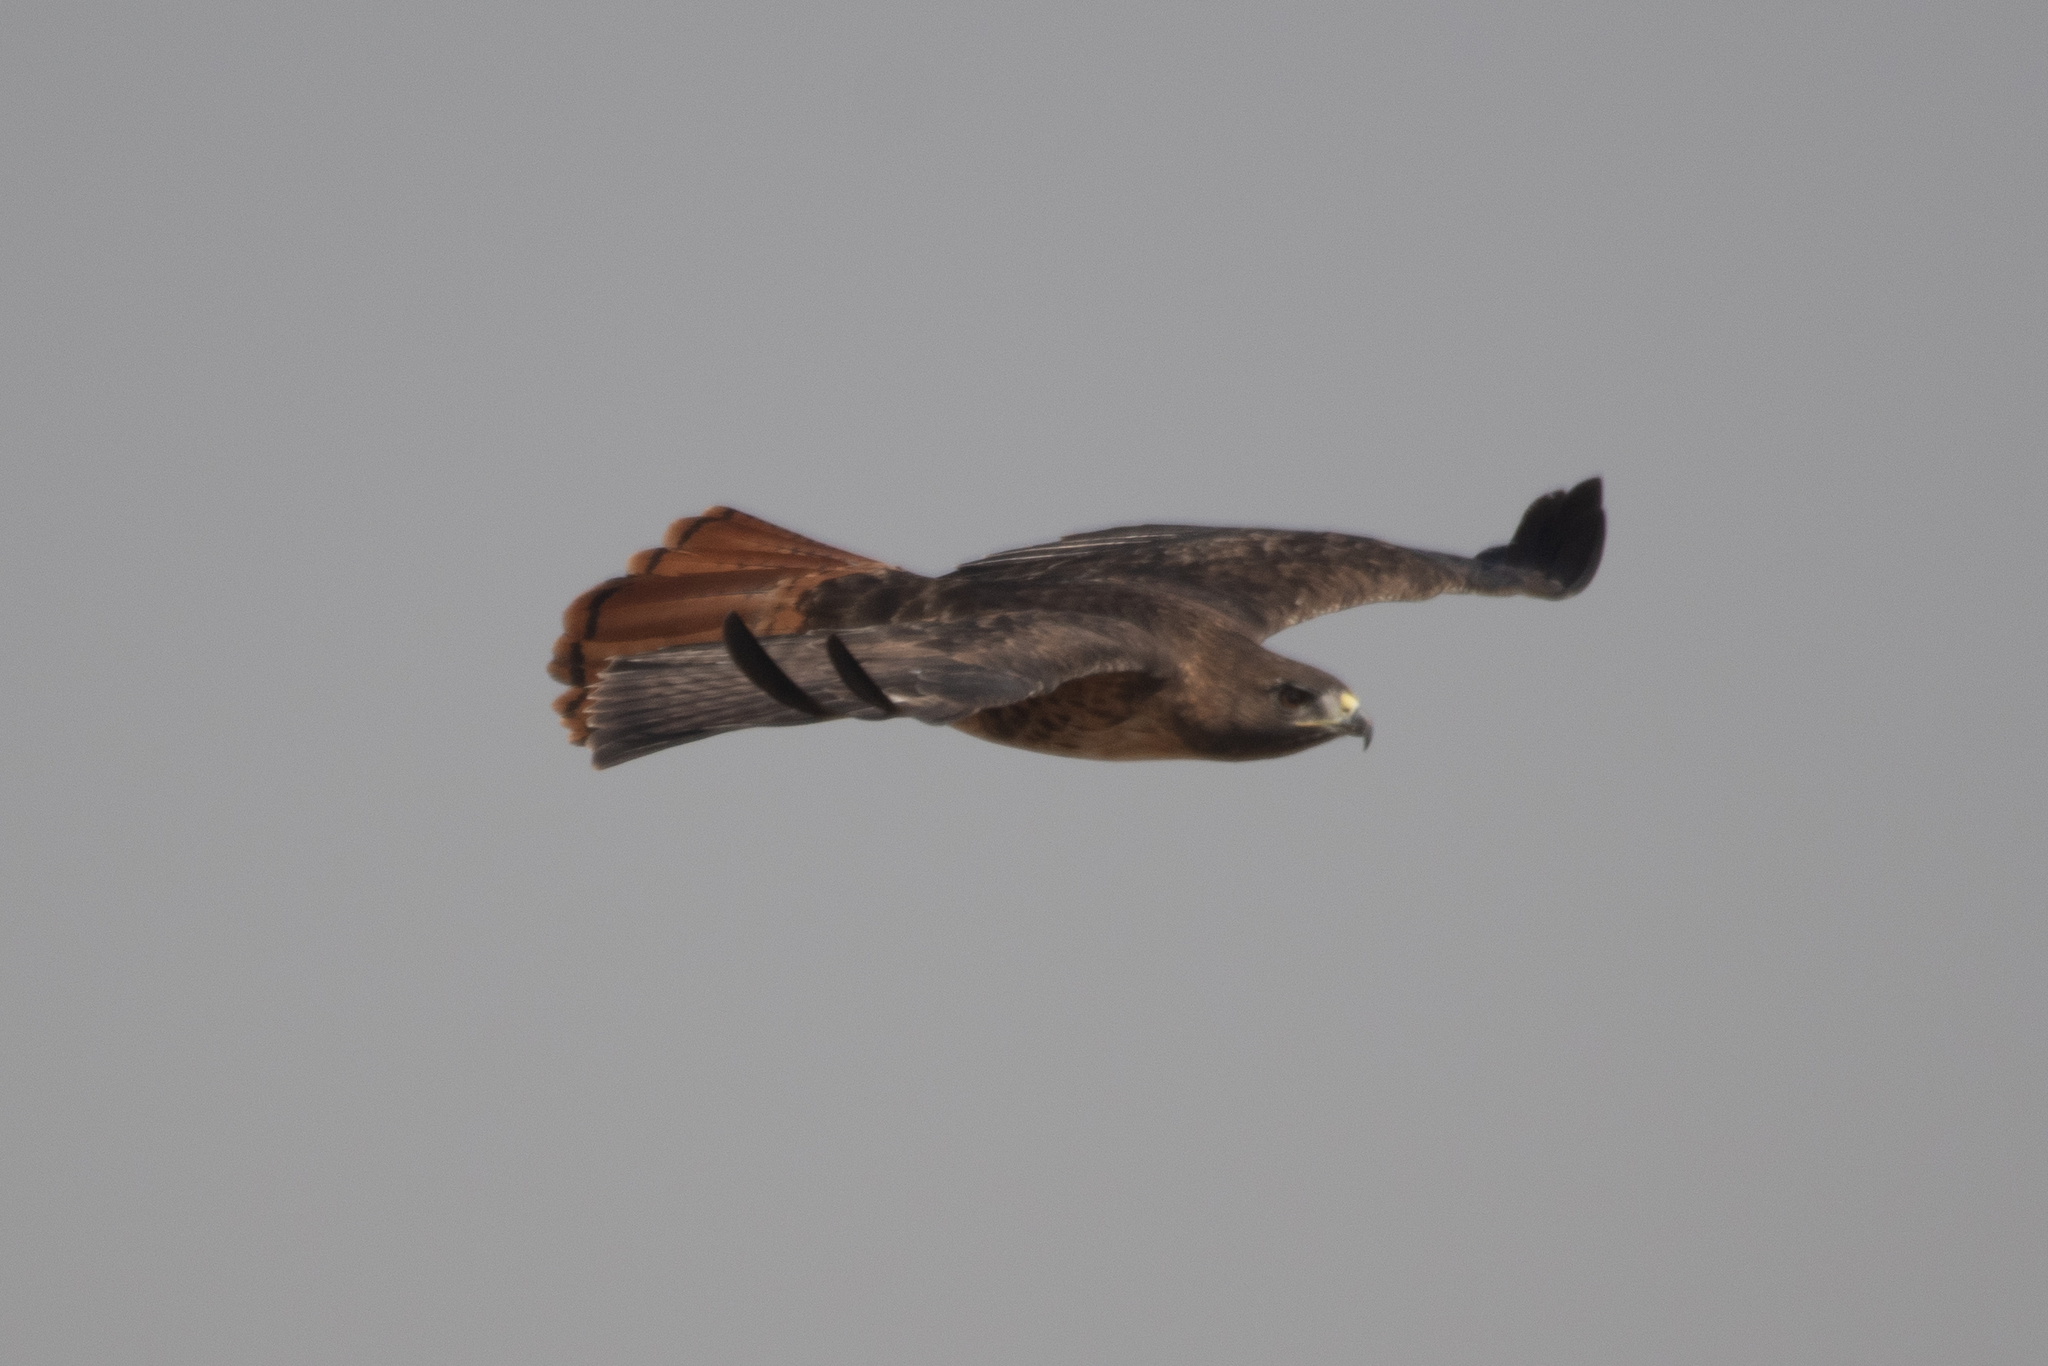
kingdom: Animalia
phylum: Chordata
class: Aves
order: Accipitriformes
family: Accipitridae
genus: Buteo
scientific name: Buteo jamaicensis
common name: Red-tailed hawk
